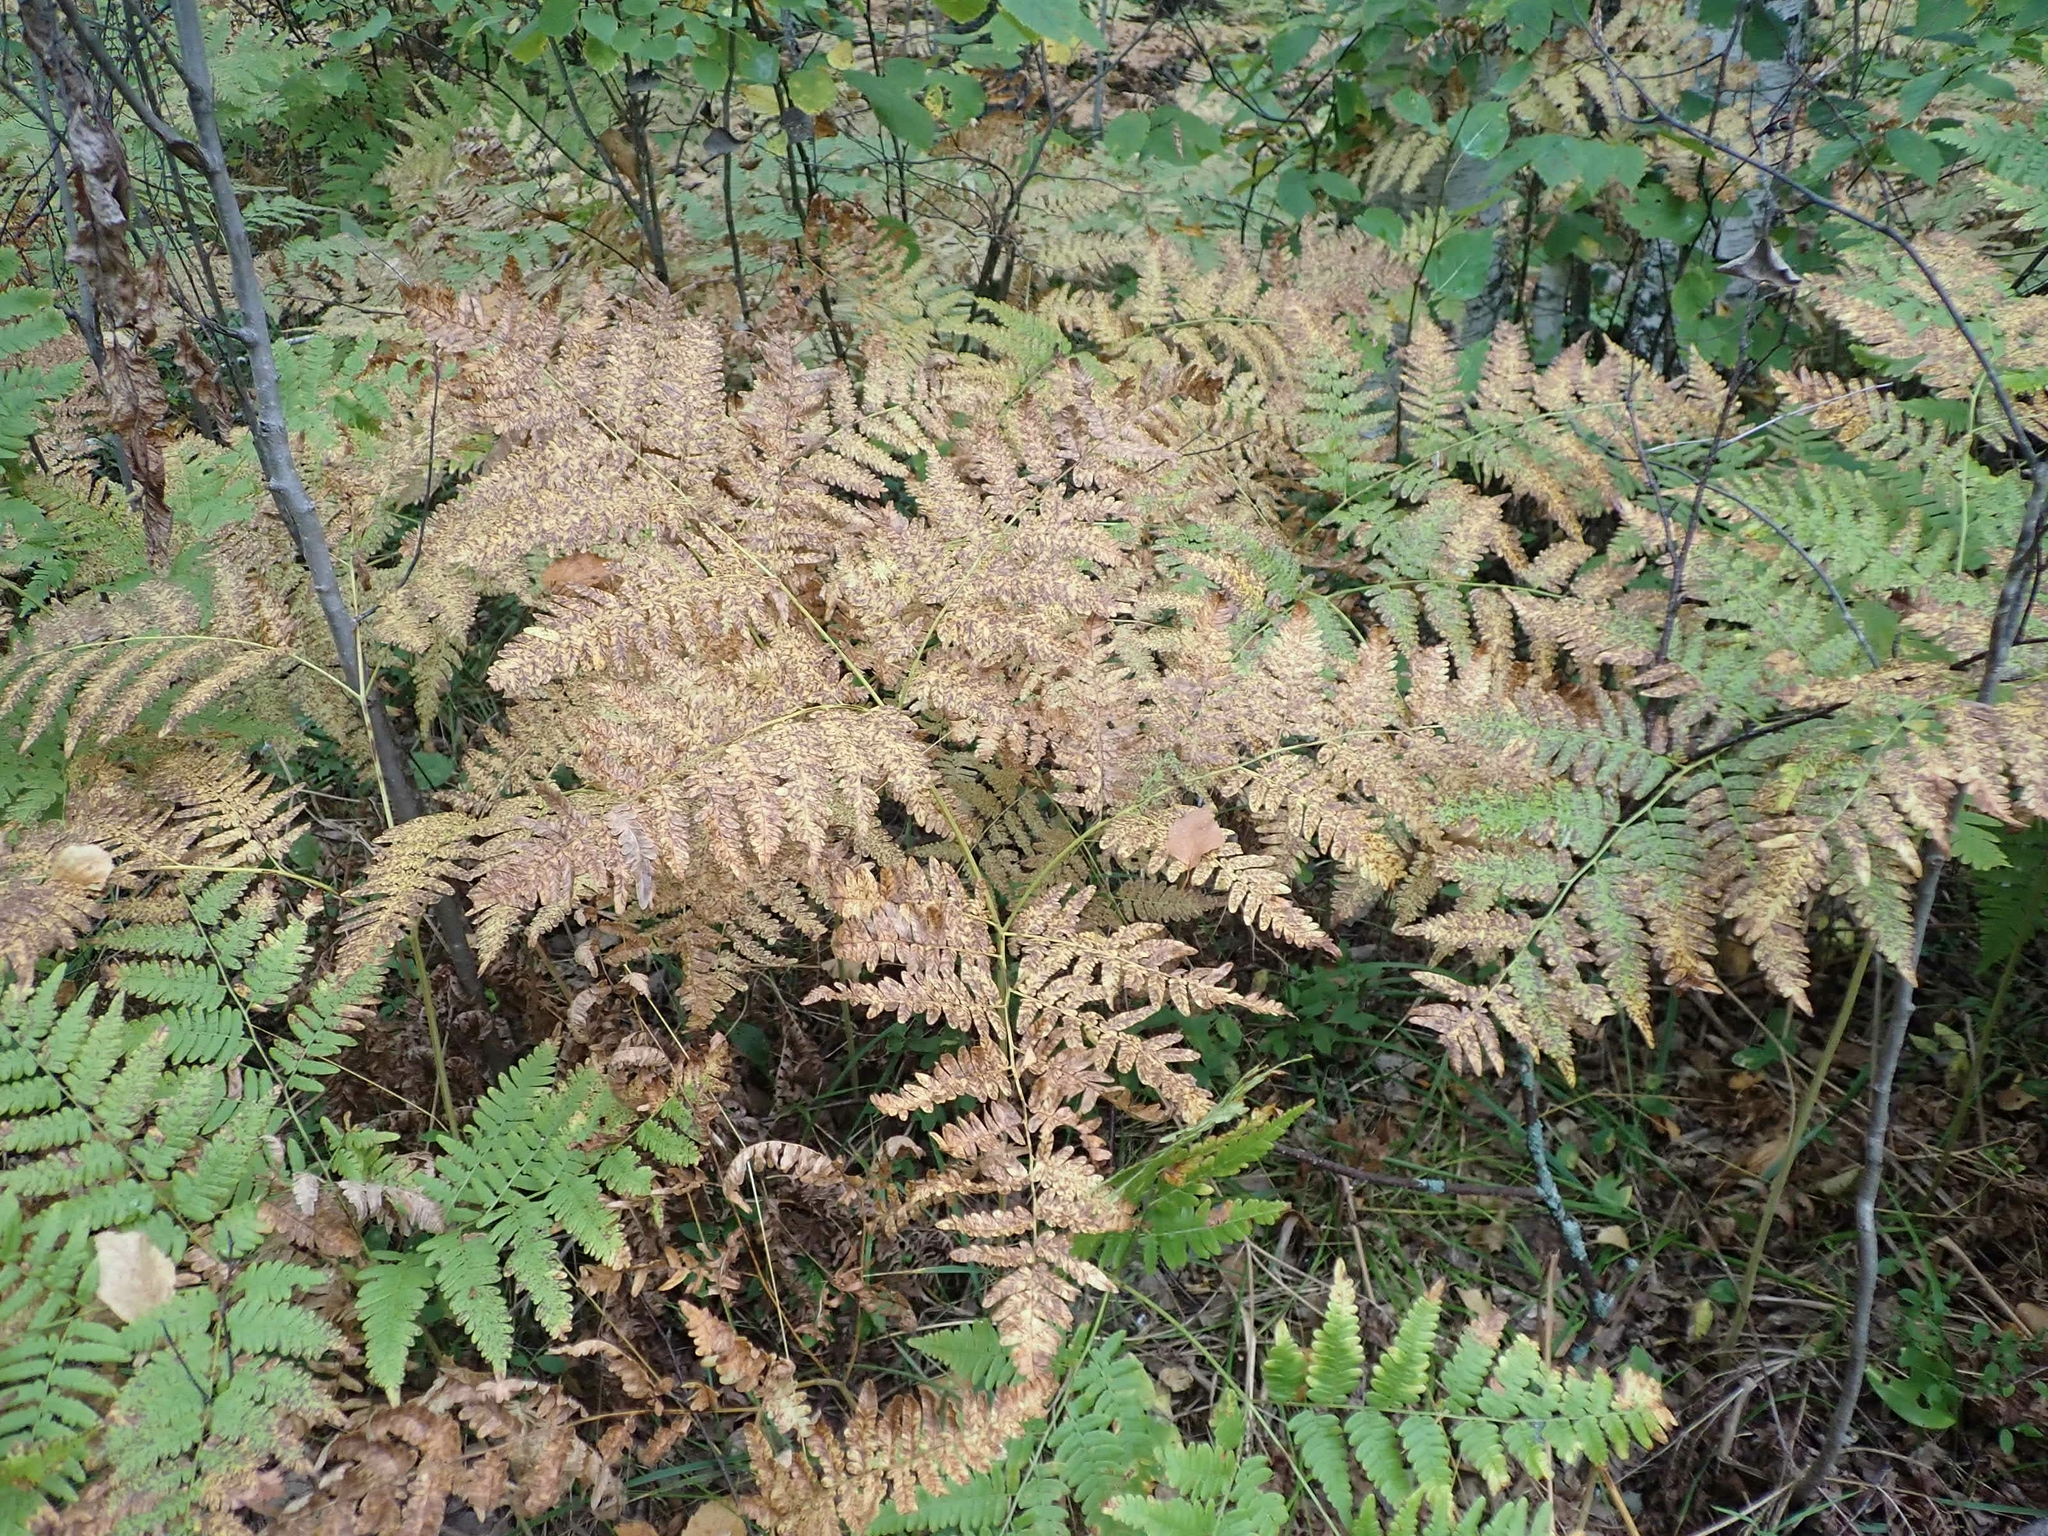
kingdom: Plantae
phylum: Tracheophyta
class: Polypodiopsida
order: Polypodiales
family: Dennstaedtiaceae
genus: Pteridium
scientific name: Pteridium aquilinum
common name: Bracken
